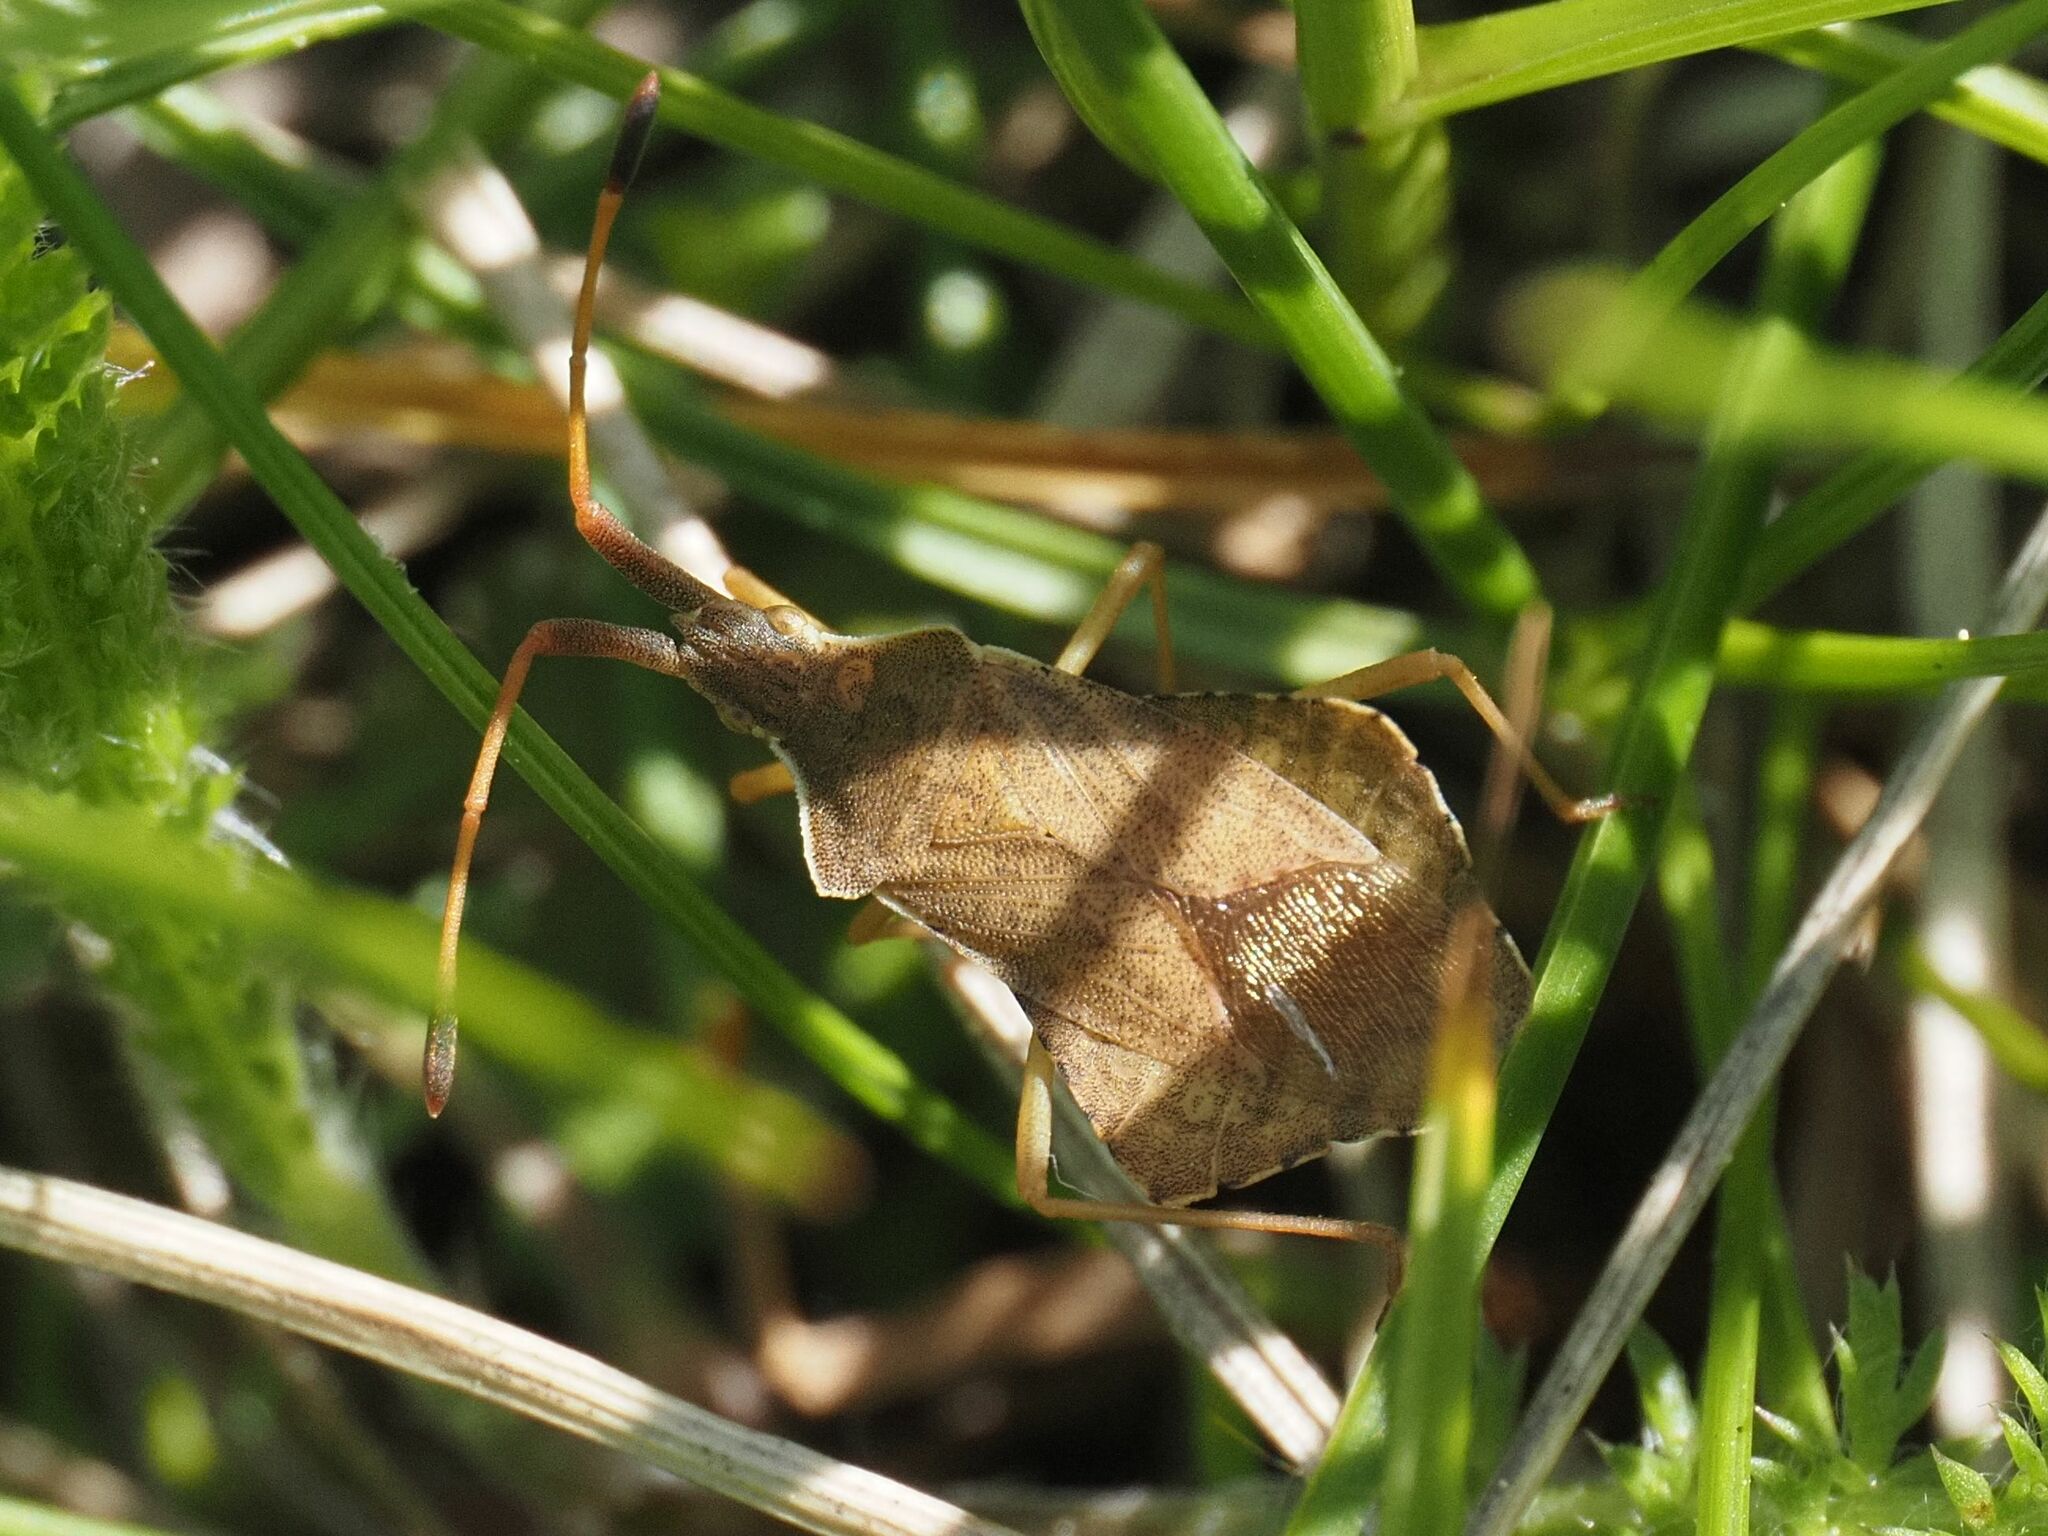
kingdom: Animalia
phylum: Arthropoda
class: Insecta
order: Hemiptera
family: Coreidae
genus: Syromastus
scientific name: Syromastus rhombeus
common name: Rhombic leatherbug
